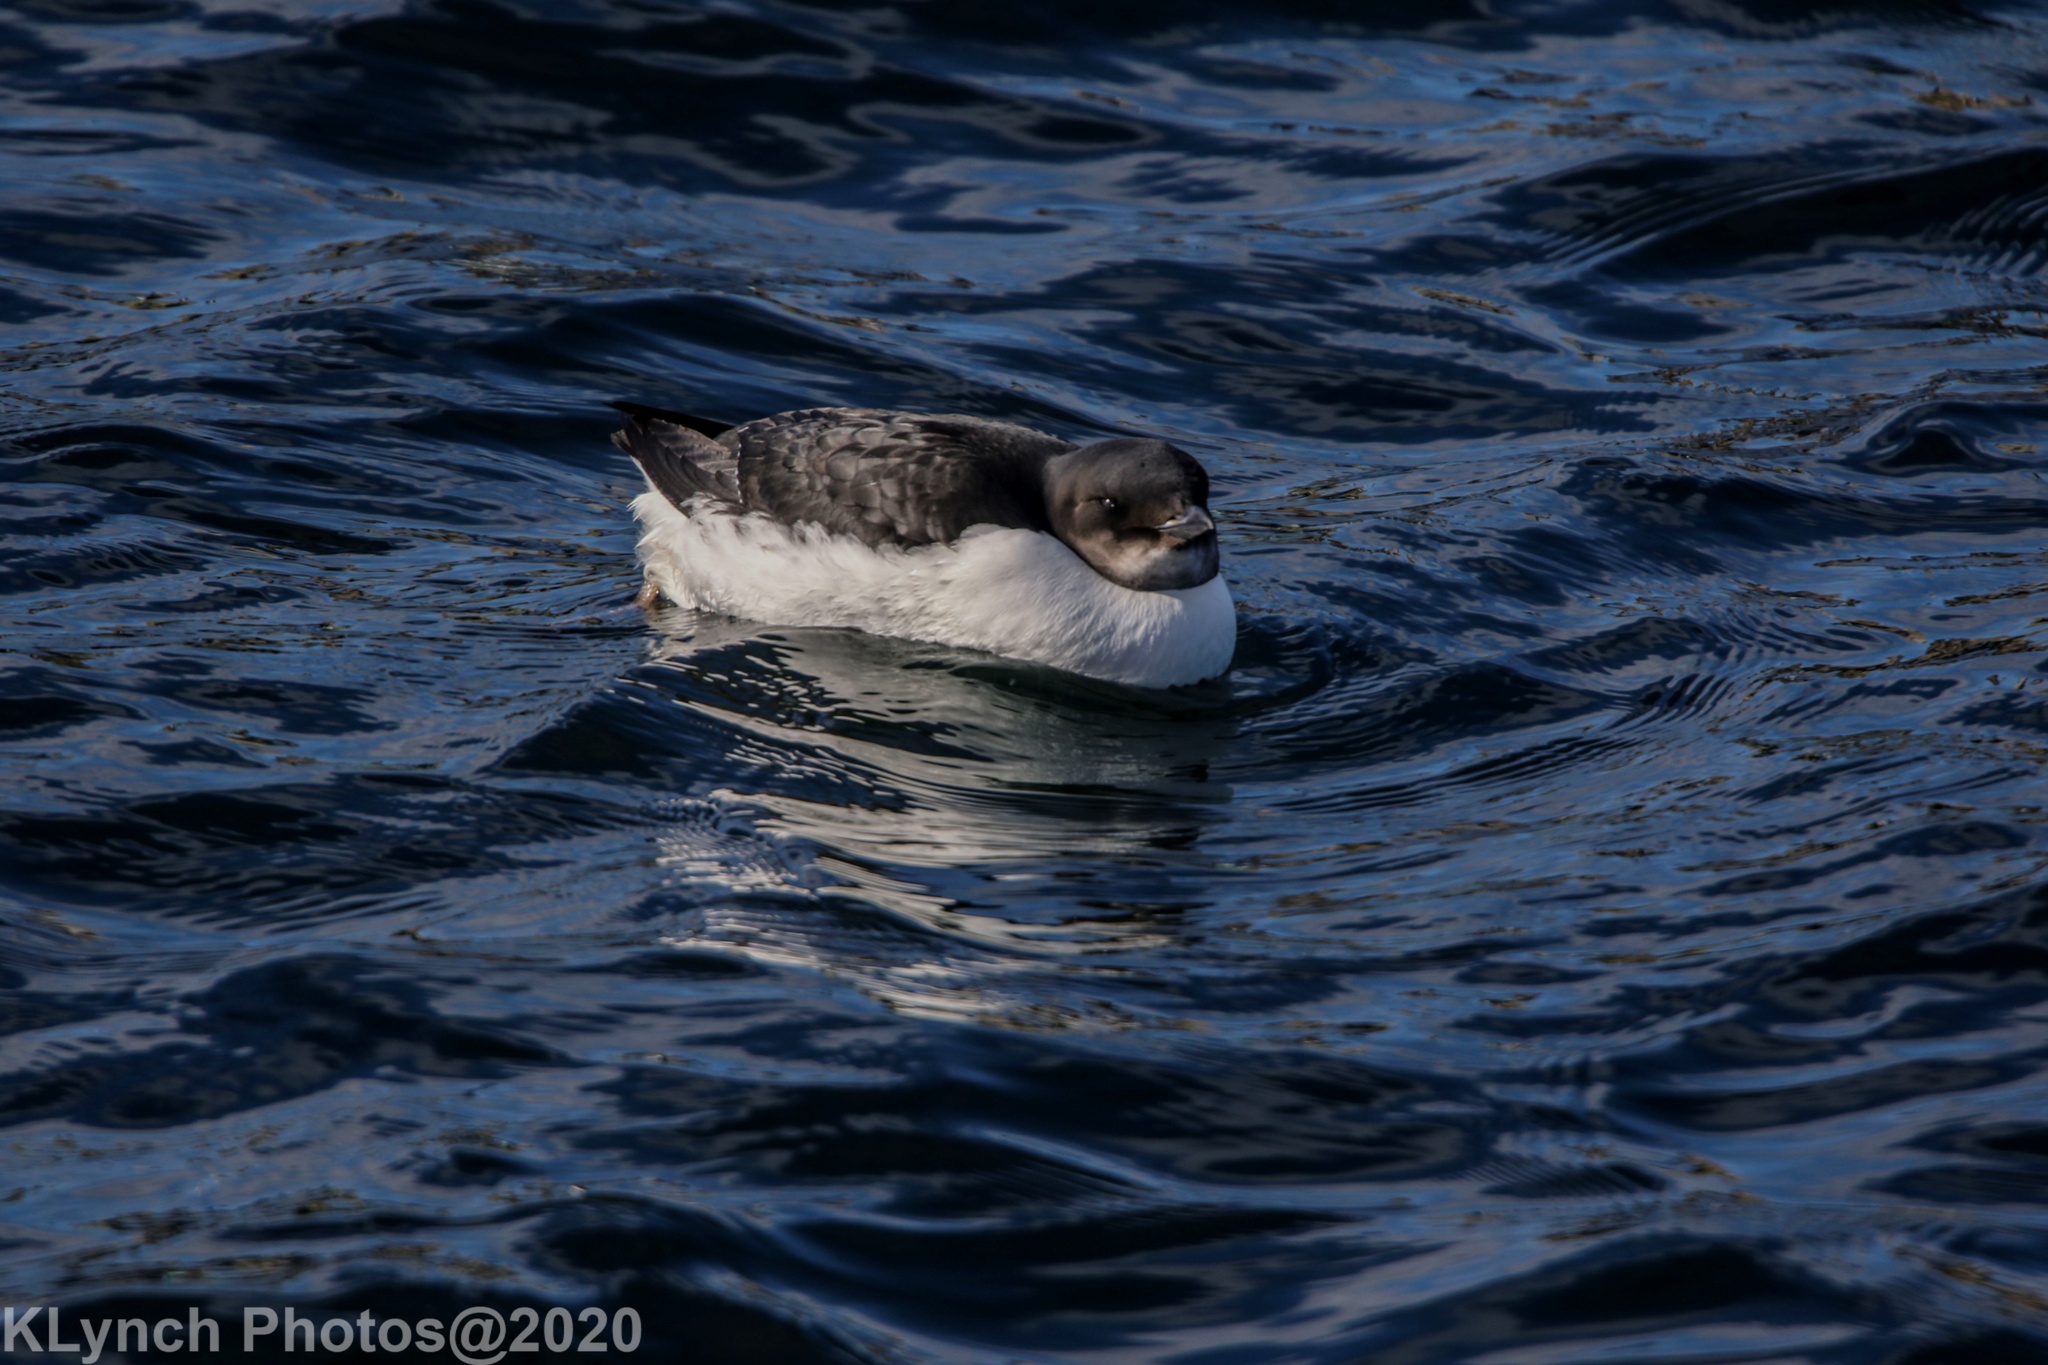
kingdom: Animalia
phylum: Chordata
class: Aves
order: Charadriiformes
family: Alcidae
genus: Uria
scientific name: Uria lomvia
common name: Thick-billed murre
